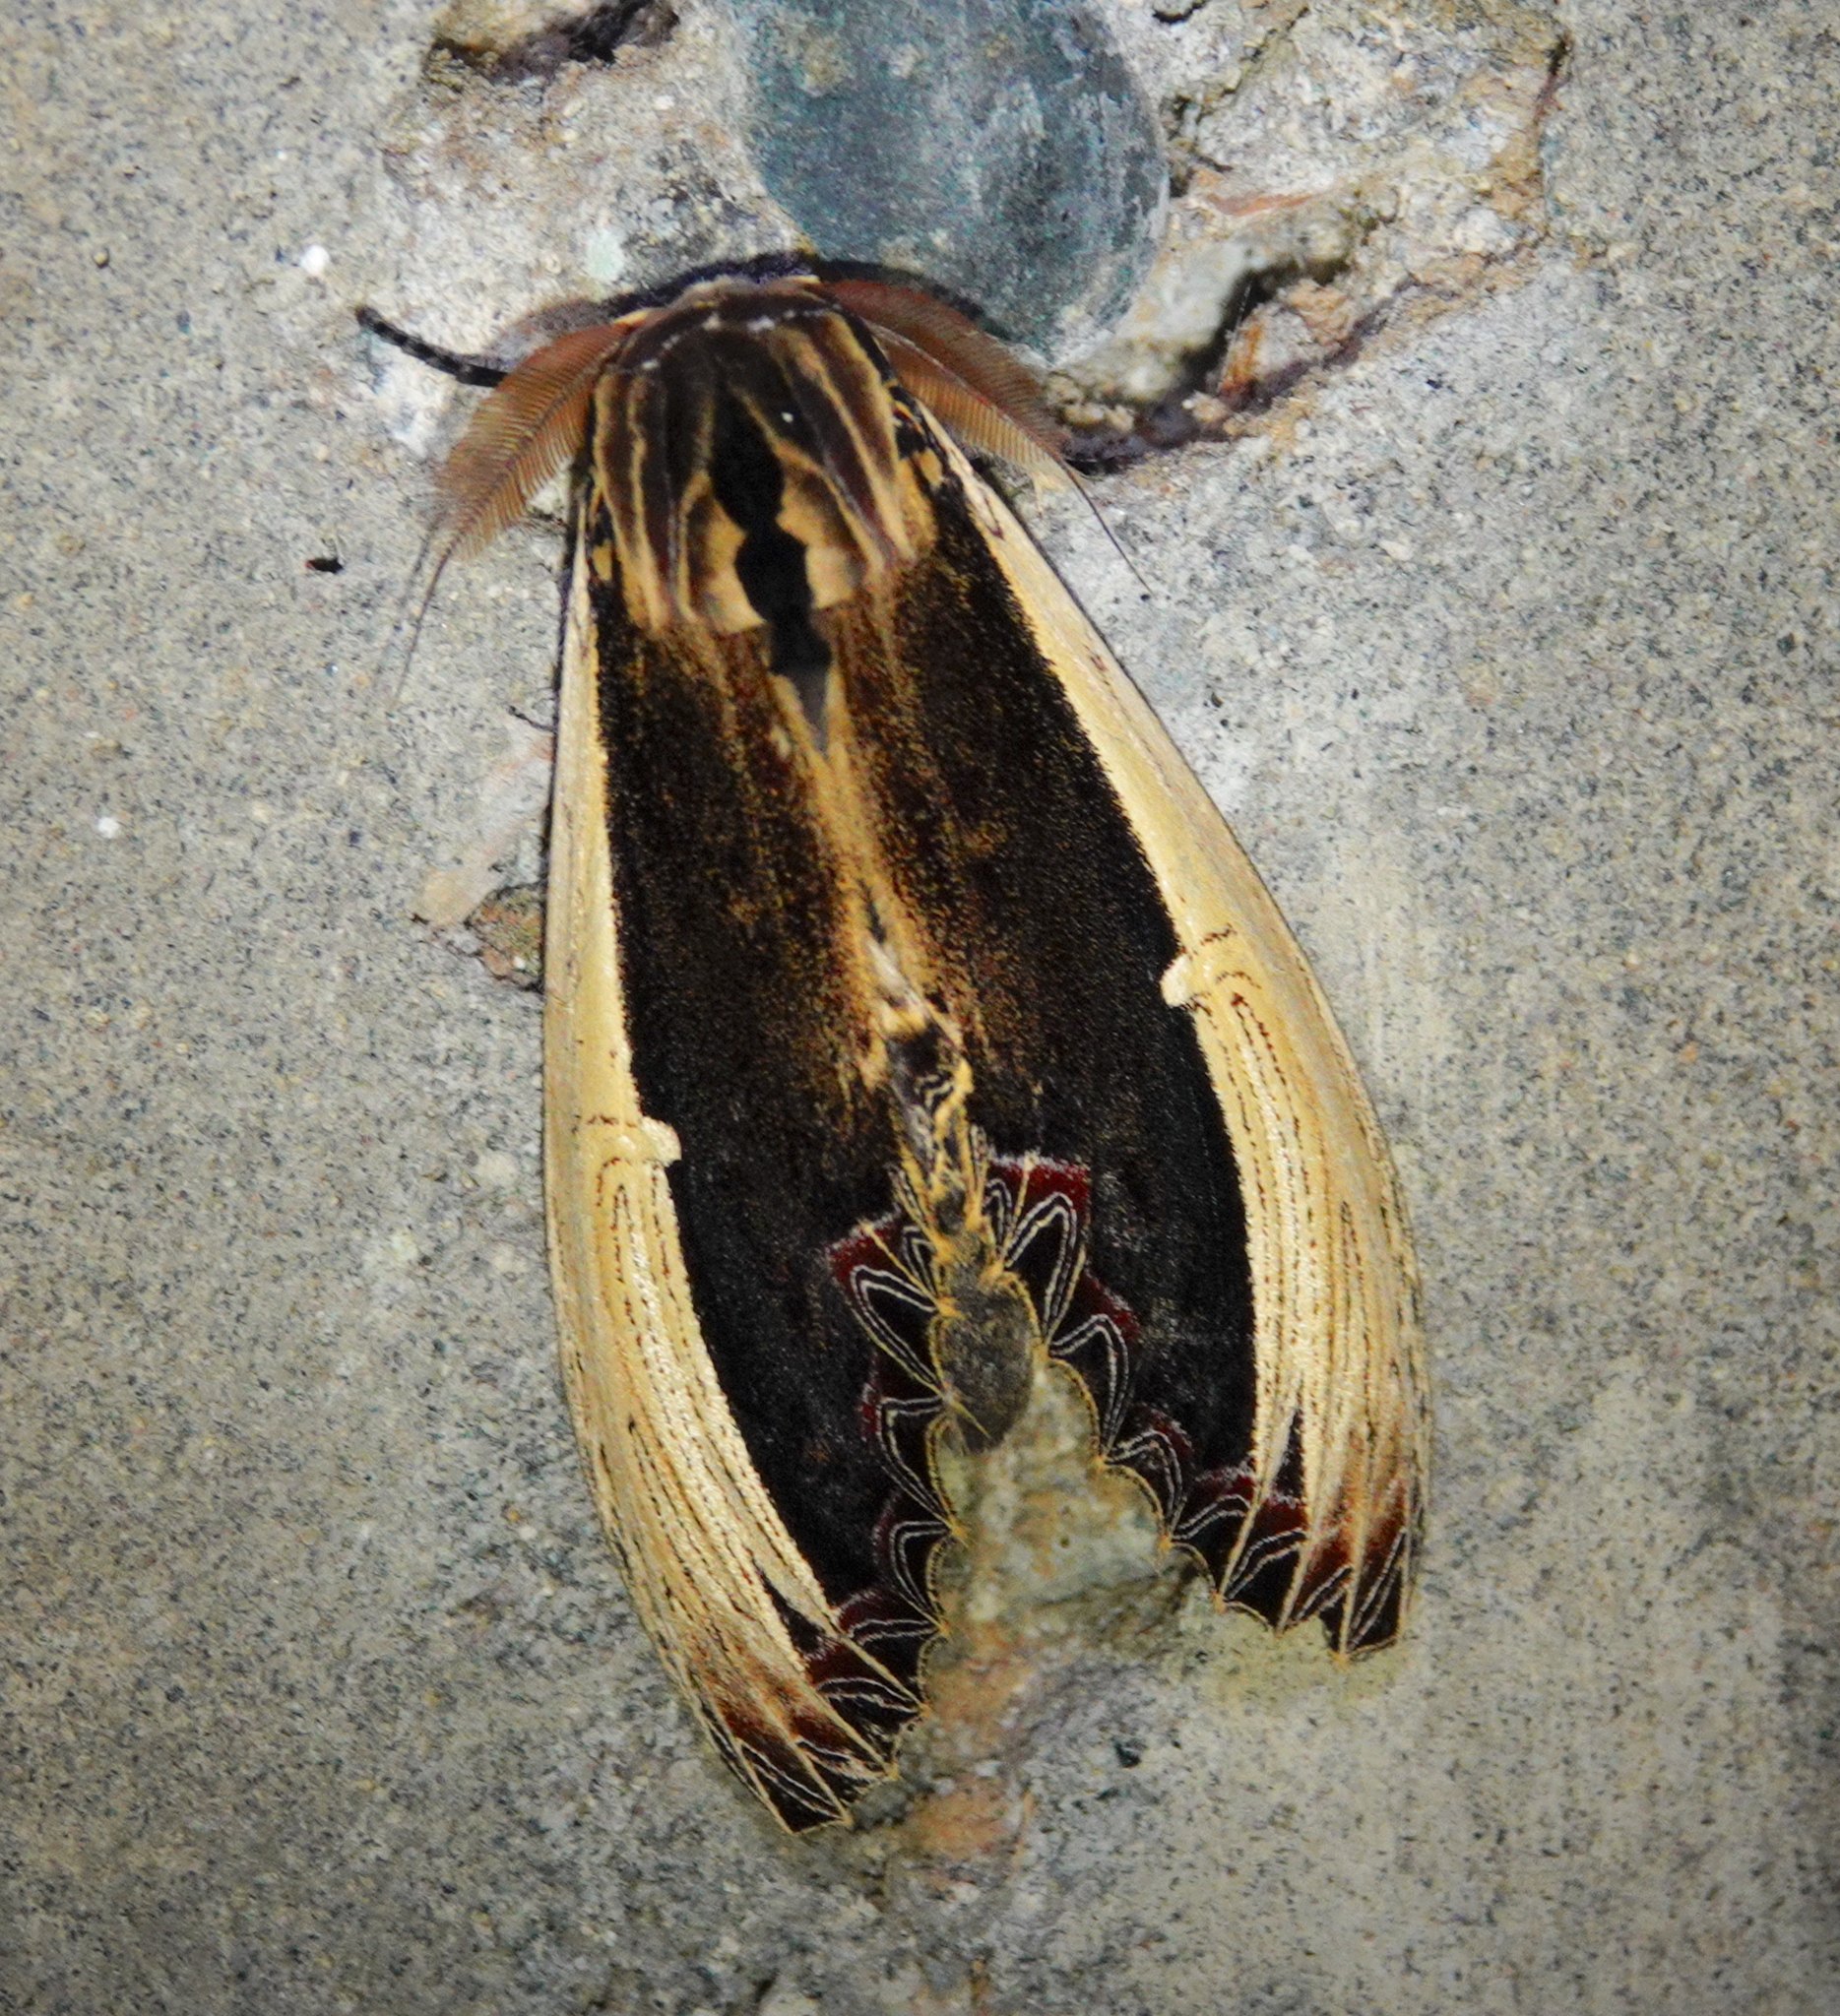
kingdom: Animalia
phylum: Arthropoda
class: Insecta
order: Lepidoptera
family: Notodontidae
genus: Truncaptera
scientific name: Truncaptera gigantea
